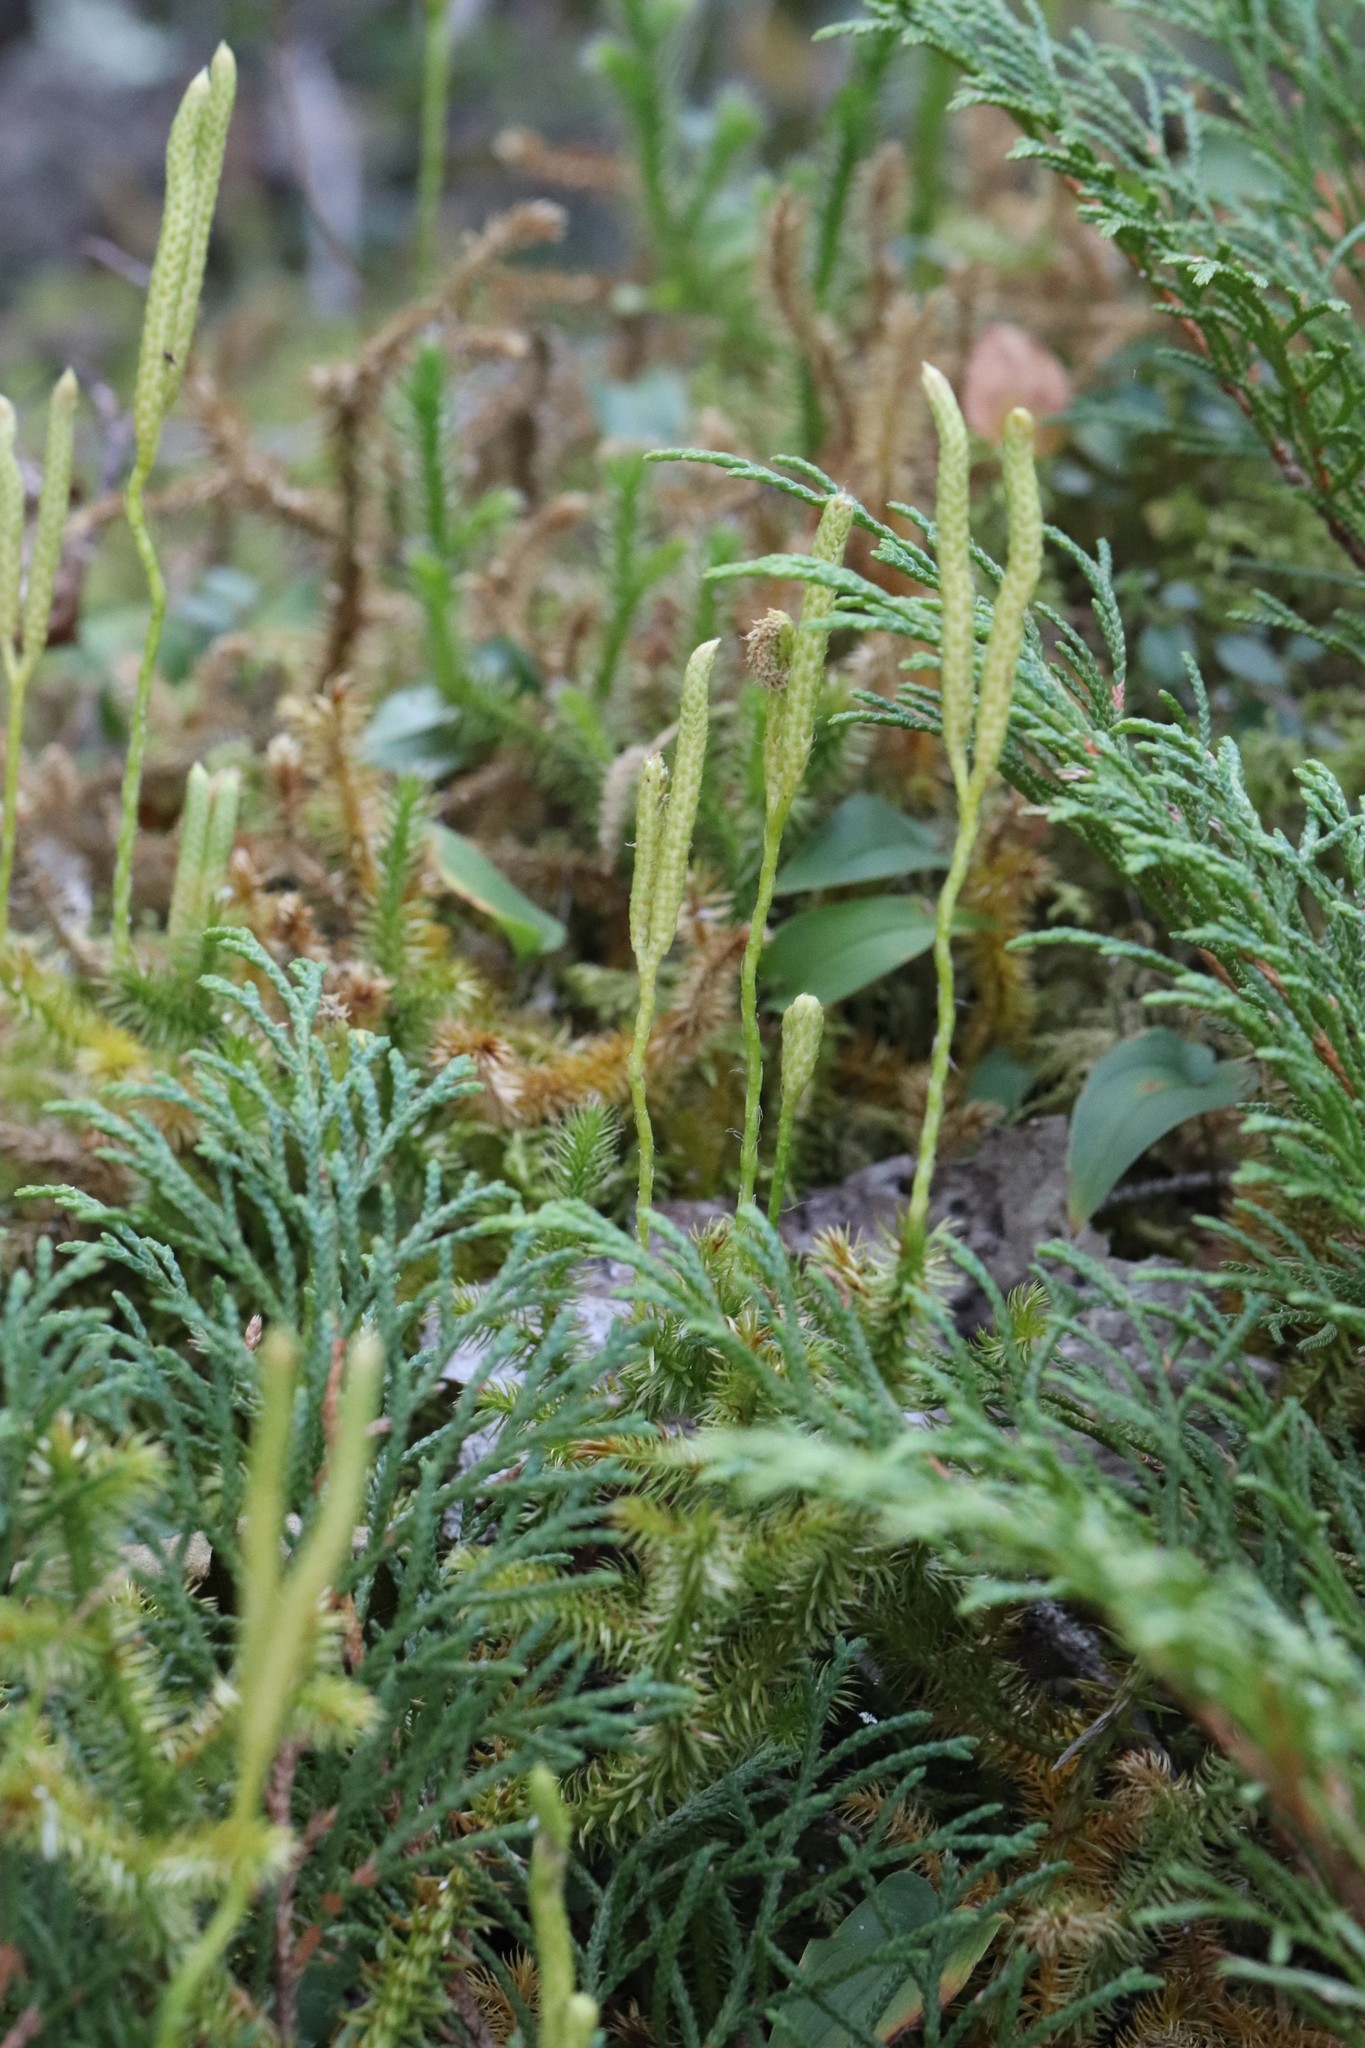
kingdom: Plantae
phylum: Tracheophyta
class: Lycopodiopsida
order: Lycopodiales
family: Lycopodiaceae
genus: Lycopodium
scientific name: Lycopodium clavatum
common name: Stag's-horn clubmoss
